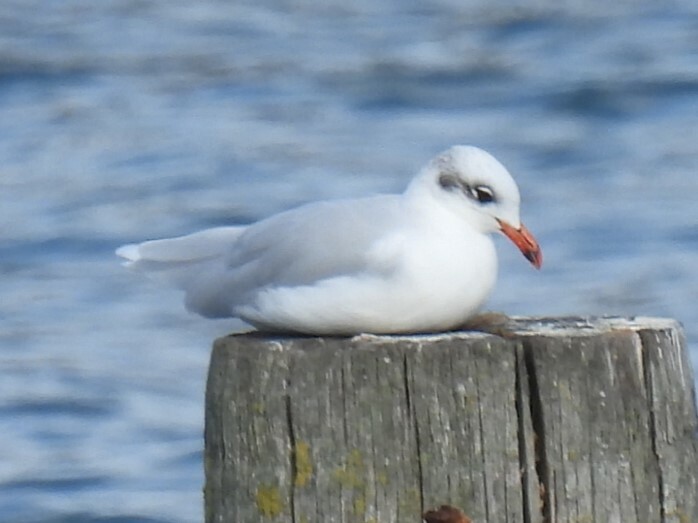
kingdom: Animalia
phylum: Chordata
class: Aves
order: Charadriiformes
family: Laridae
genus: Ichthyaetus
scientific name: Ichthyaetus melanocephalus
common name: Mediterranean gull
